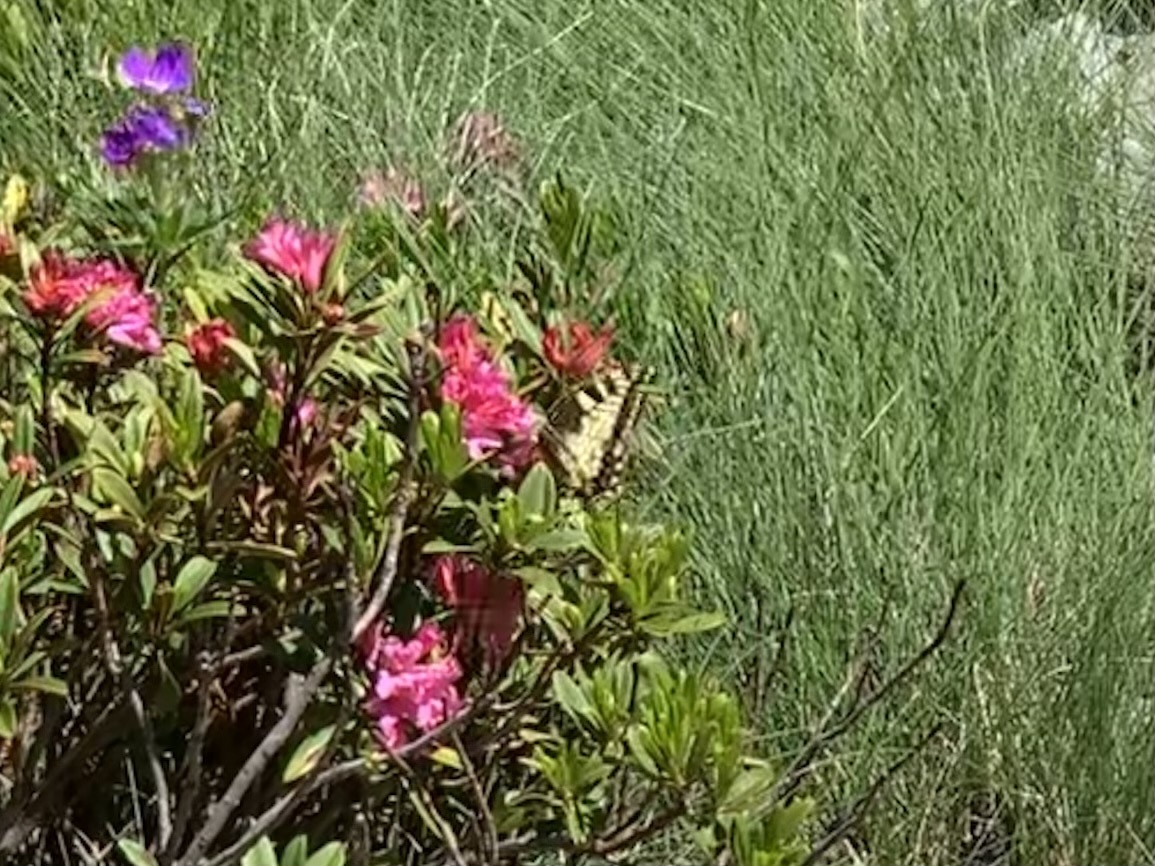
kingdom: Animalia
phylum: Arthropoda
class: Insecta
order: Lepidoptera
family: Papilionidae
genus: Papilio
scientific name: Papilio machaon
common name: Swallowtail
